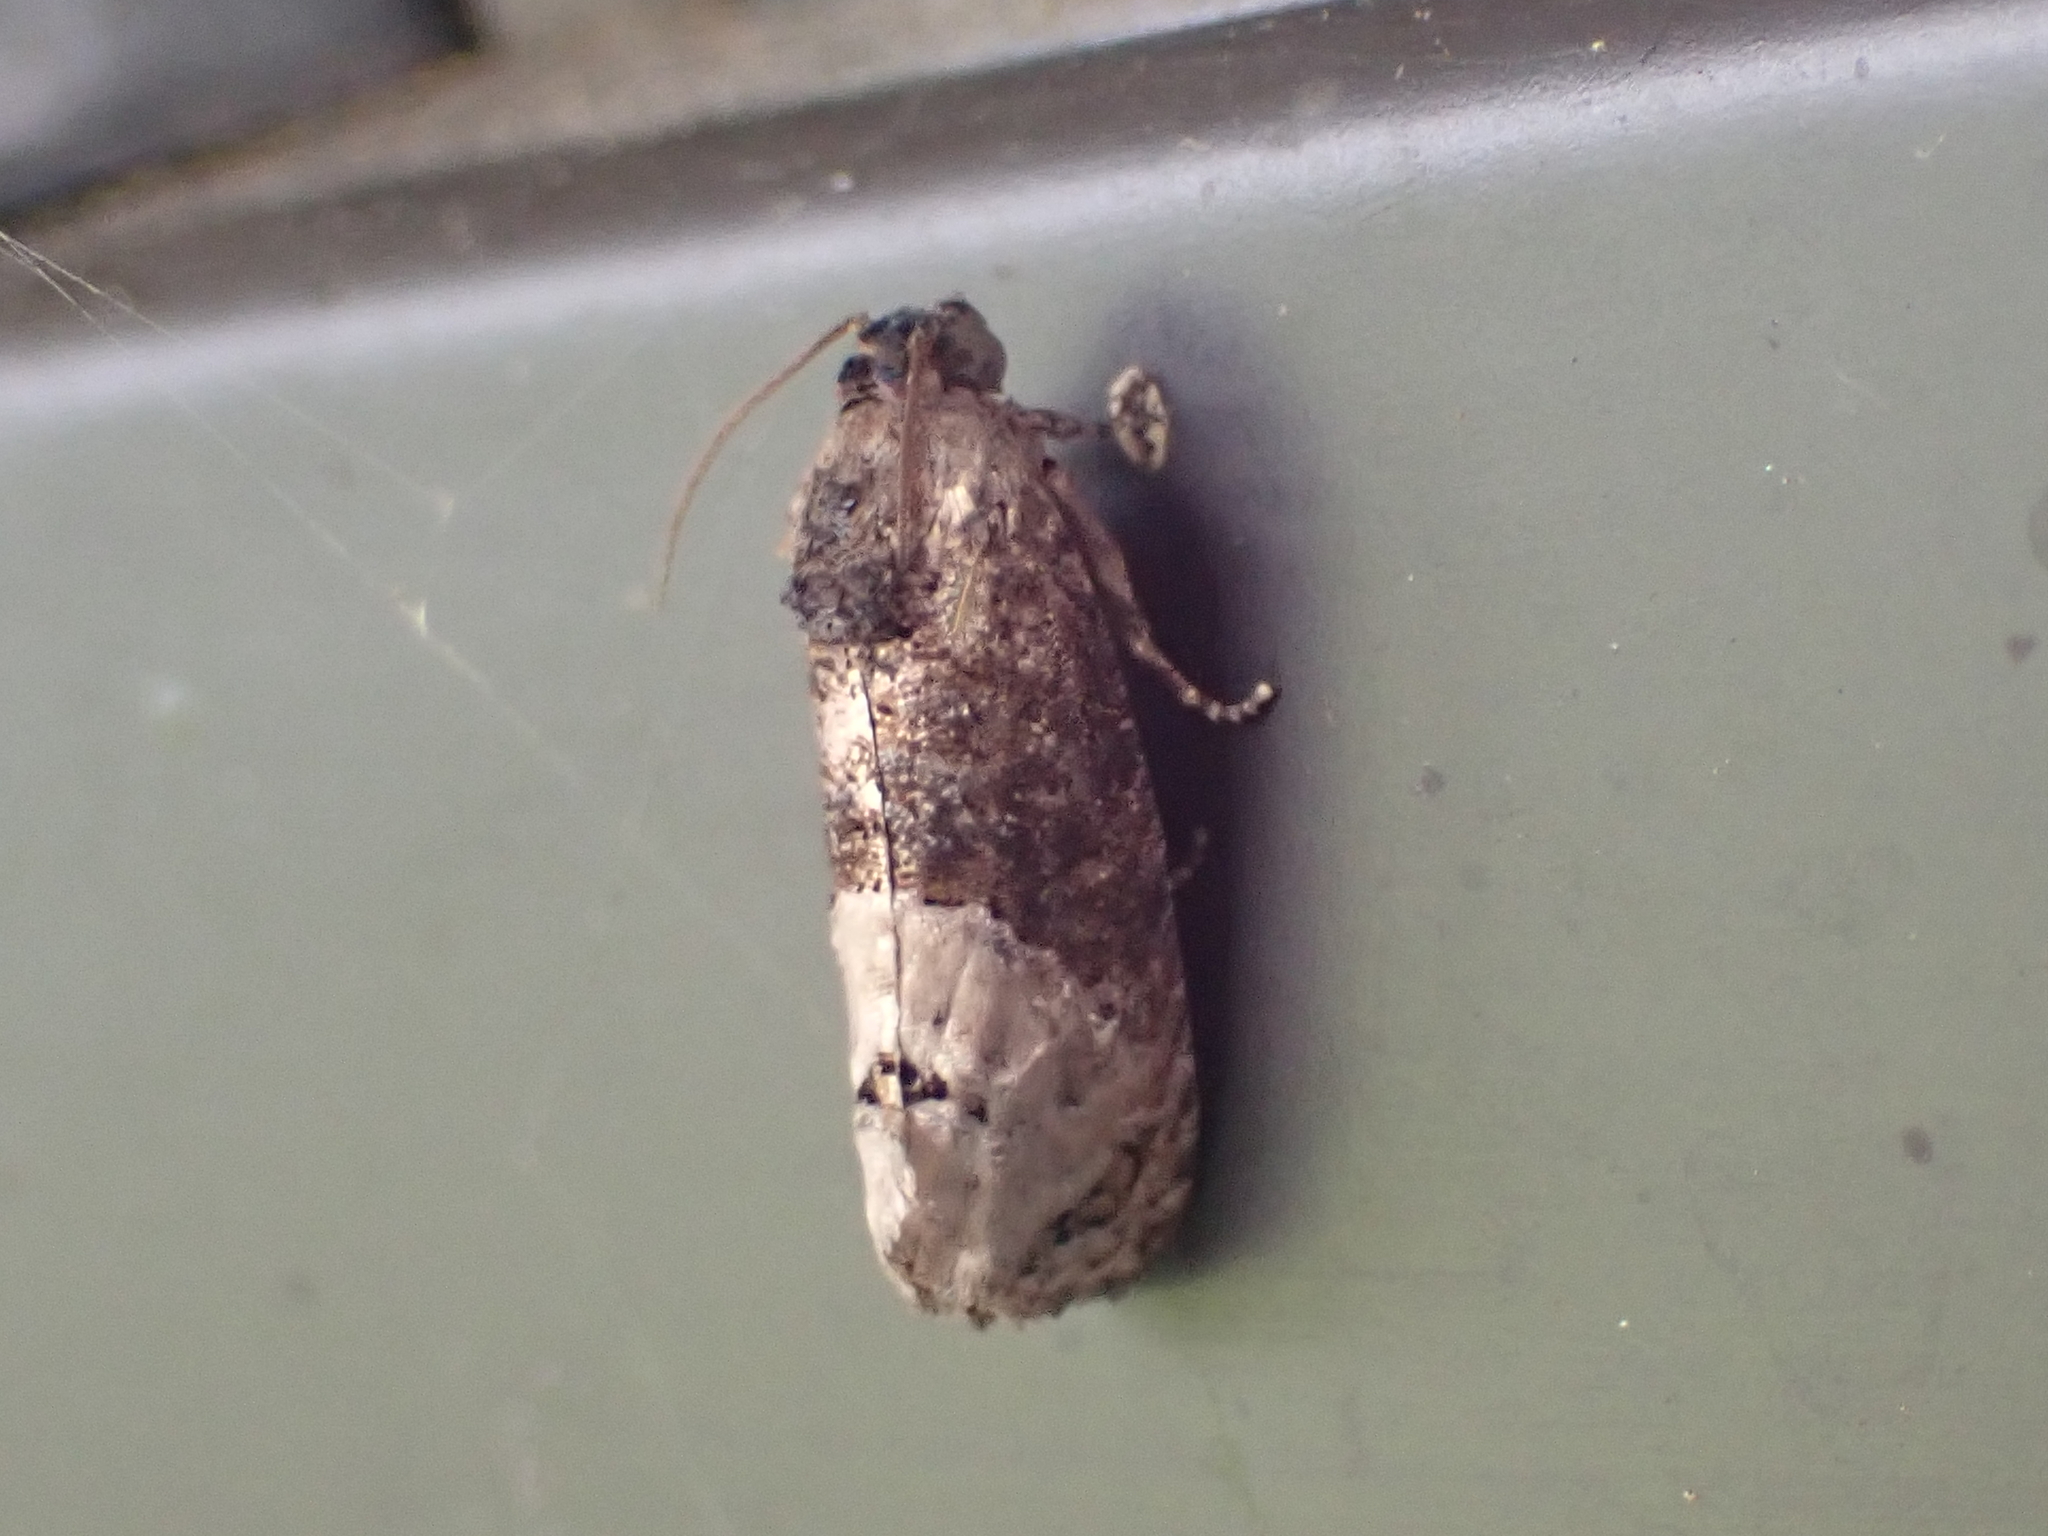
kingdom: Animalia
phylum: Arthropoda
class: Insecta
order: Lepidoptera
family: Tortricidae
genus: Ecdytolopha
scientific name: Ecdytolopha insiticiana
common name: Locust twig borer moth
